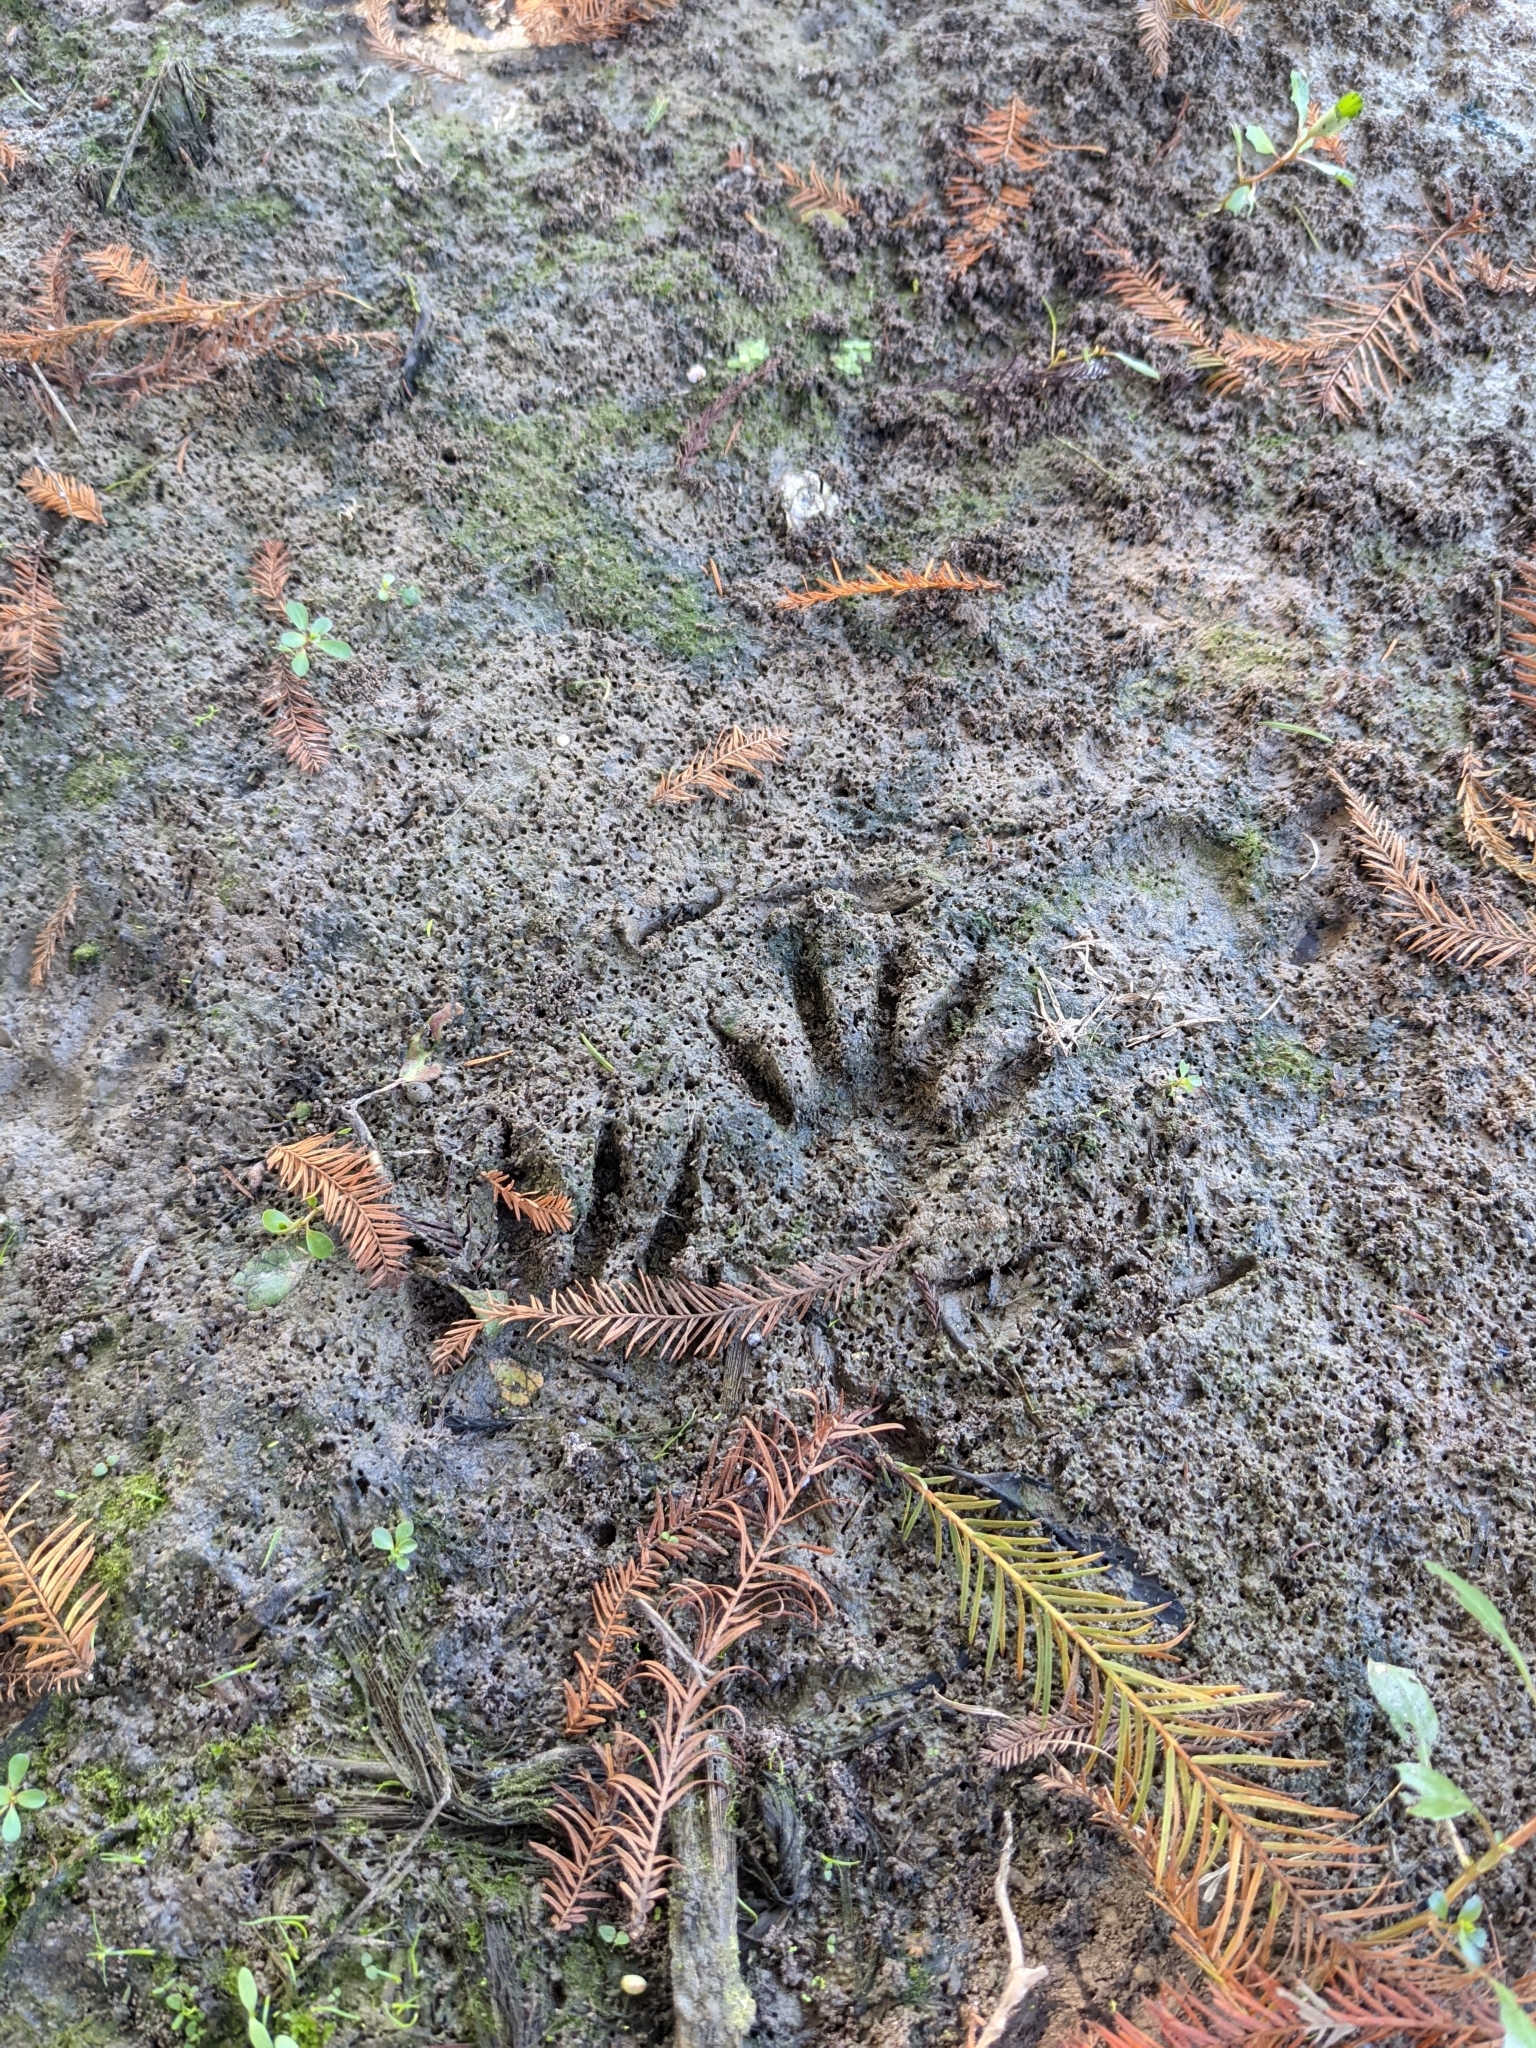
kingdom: Animalia
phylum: Chordata
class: Mammalia
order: Carnivora
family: Procyonidae
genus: Procyon
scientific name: Procyon lotor
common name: Raccoon
